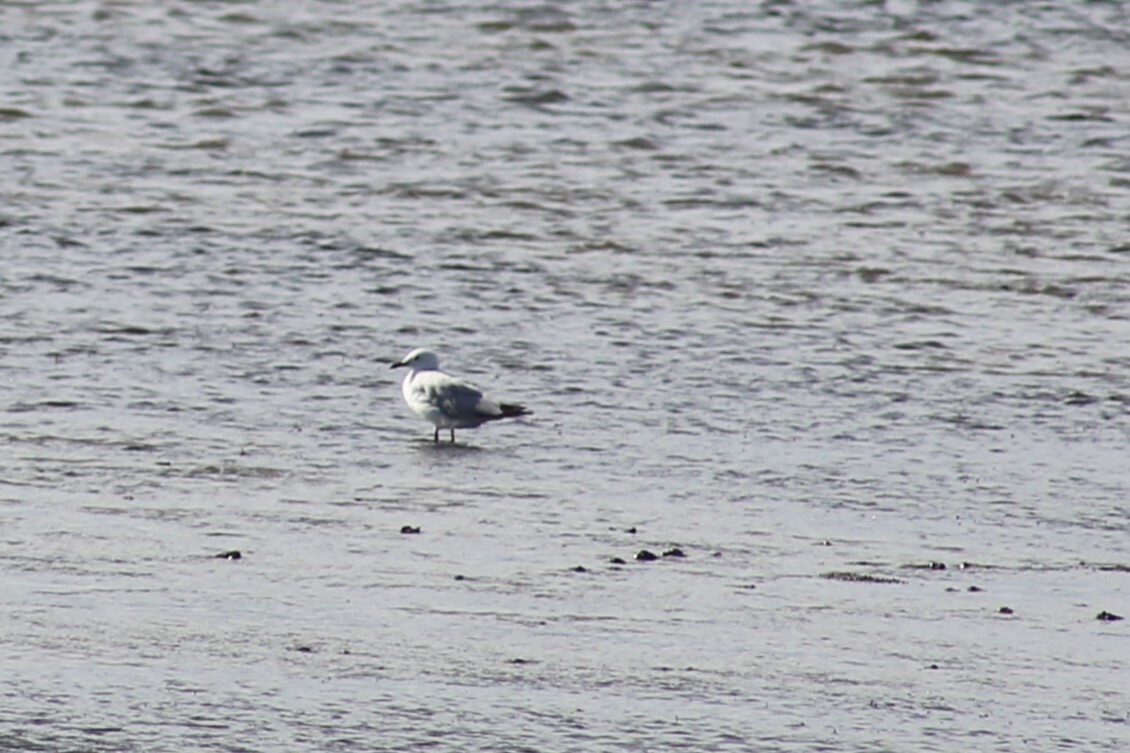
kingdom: Animalia
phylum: Chordata
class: Aves
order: Charadriiformes
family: Laridae
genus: Chroicocephalus
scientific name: Chroicocephalus novaehollandiae
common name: Silver gull
